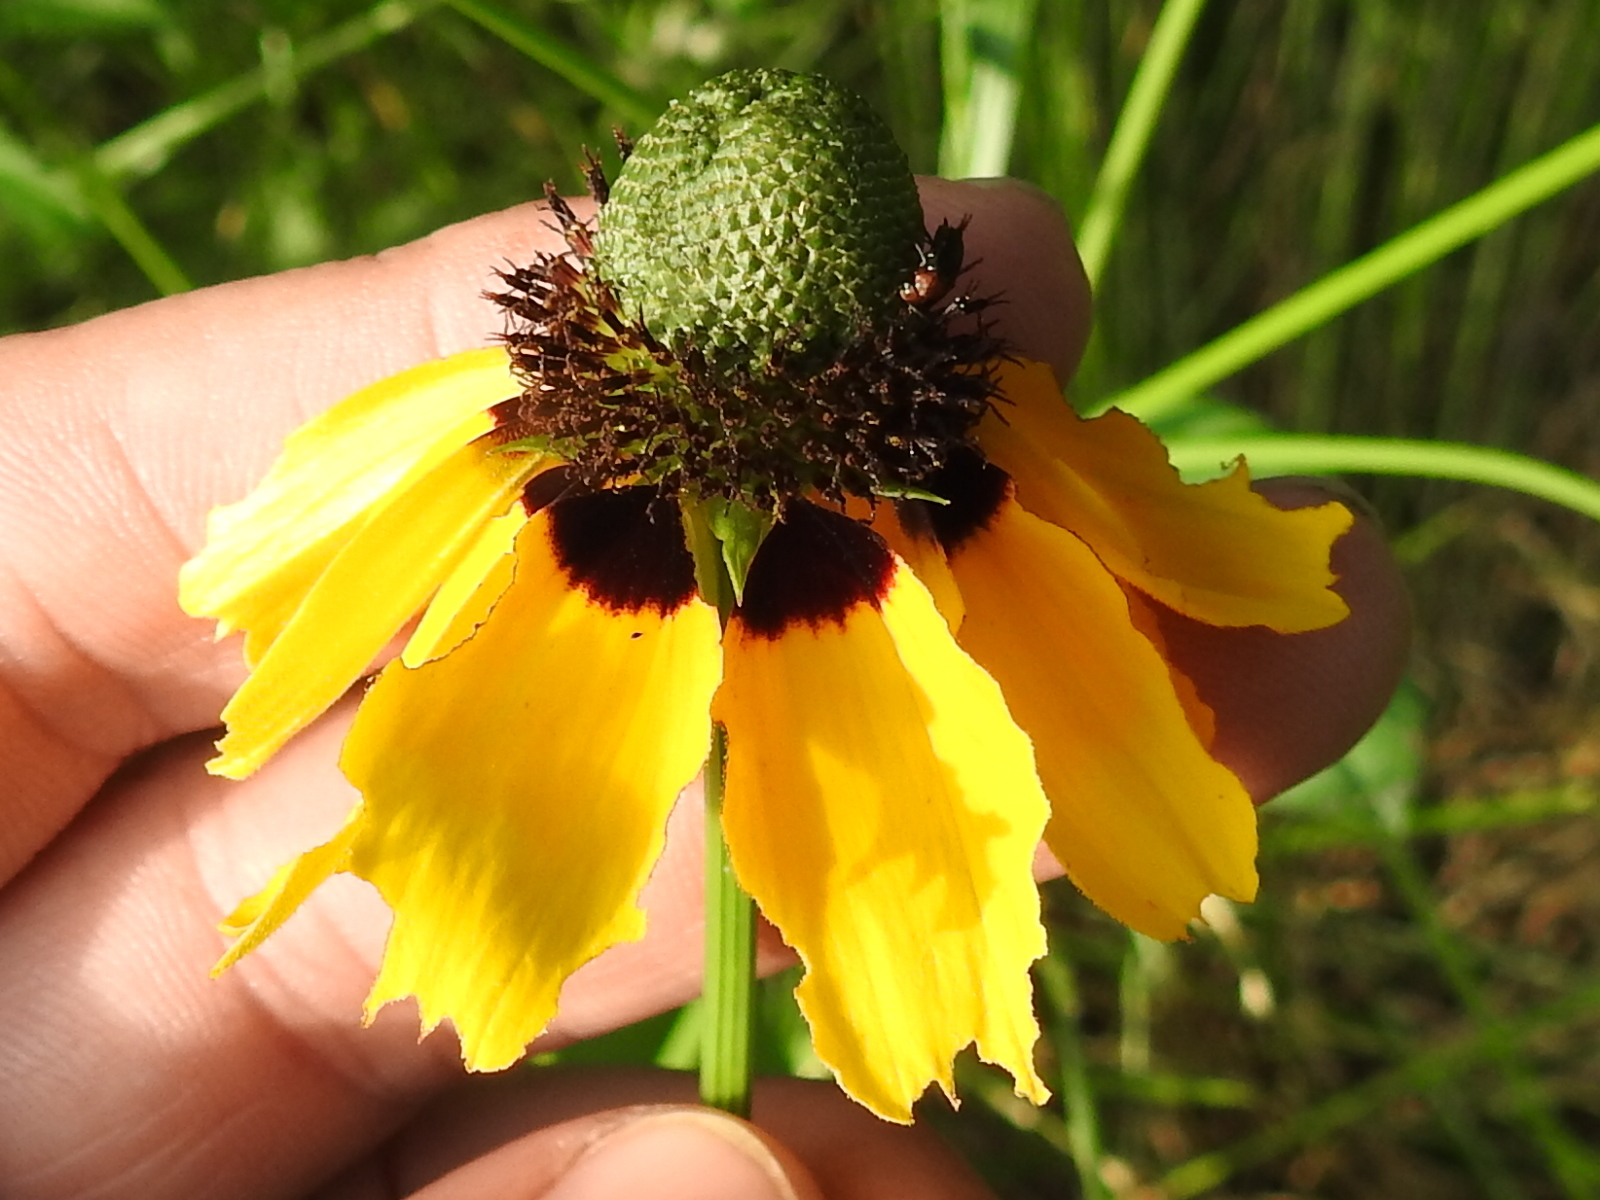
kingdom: Plantae
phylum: Tracheophyta
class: Magnoliopsida
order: Asterales
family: Asteraceae
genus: Rudbeckia
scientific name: Rudbeckia amplexicaulis
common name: Clasping-leaf coneflower
